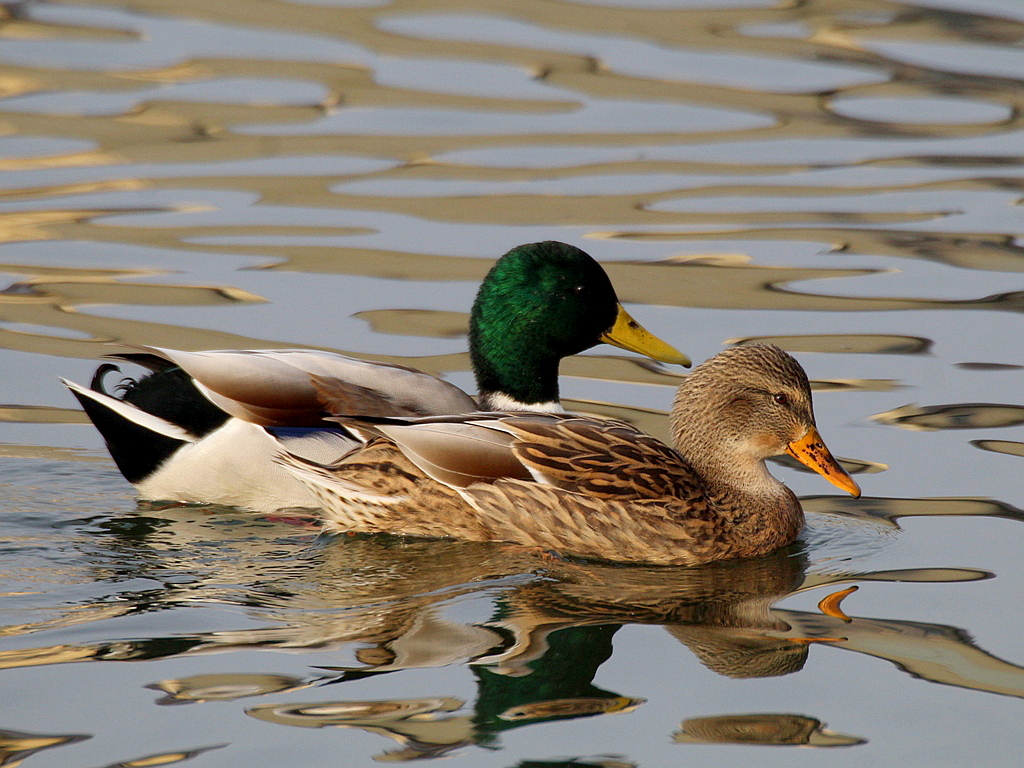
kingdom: Animalia
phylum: Chordata
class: Aves
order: Anseriformes
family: Anatidae
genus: Anas
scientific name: Anas platyrhynchos
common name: Mallard
